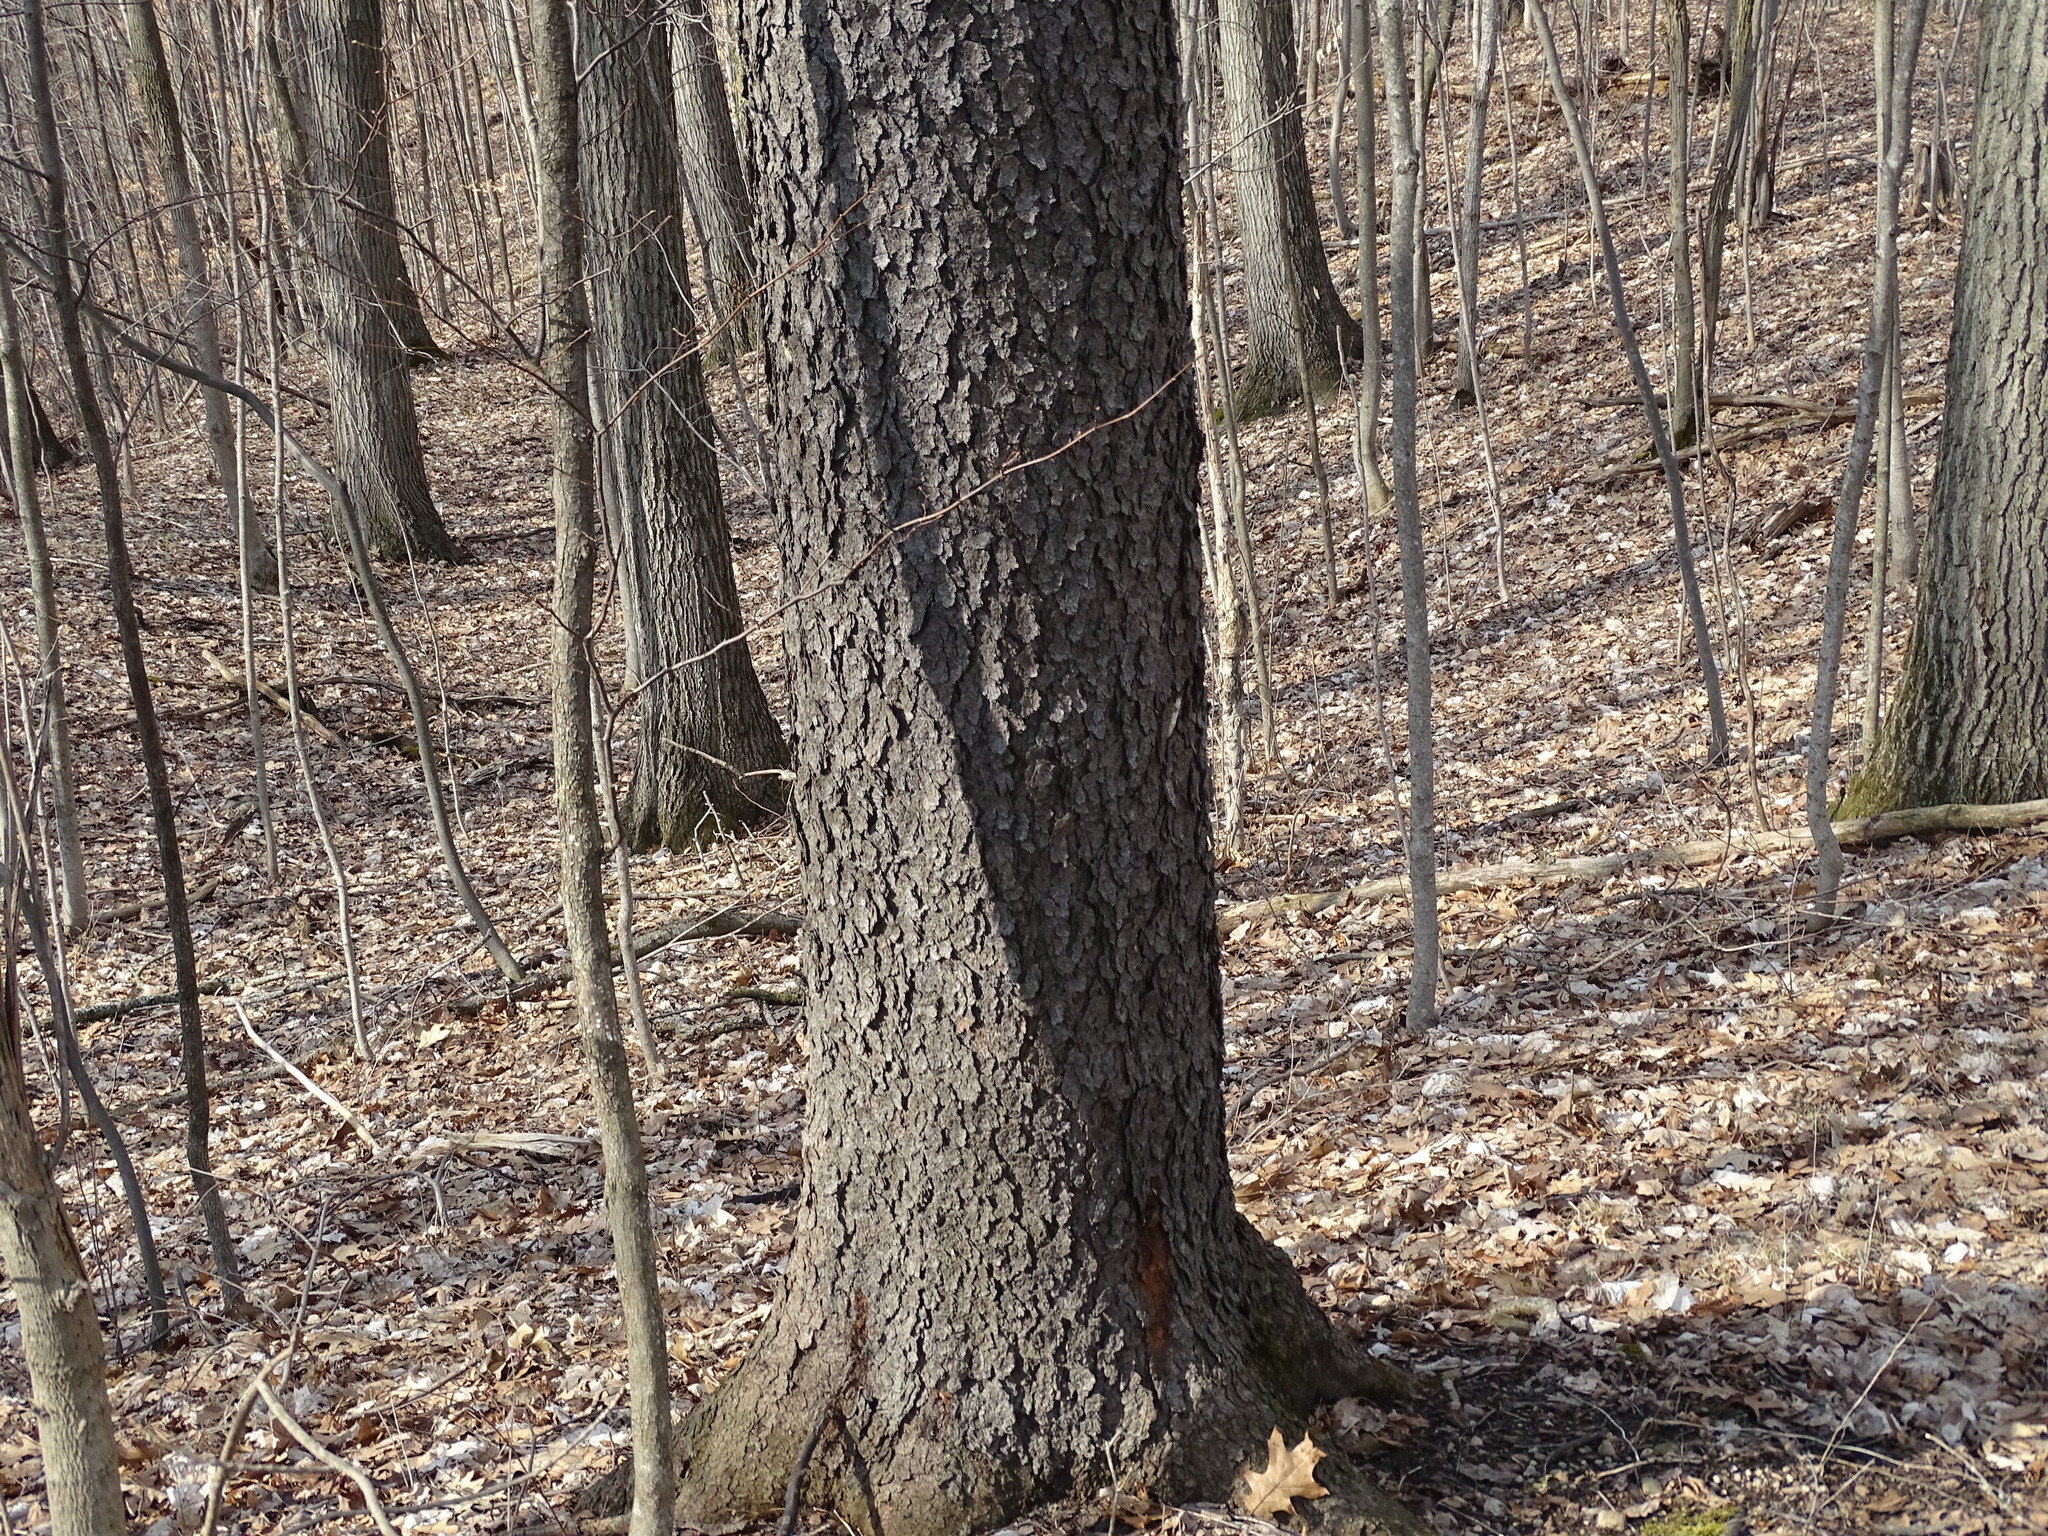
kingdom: Plantae
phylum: Tracheophyta
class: Magnoliopsida
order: Rosales
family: Rosaceae
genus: Prunus
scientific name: Prunus serotina
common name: Black cherry
